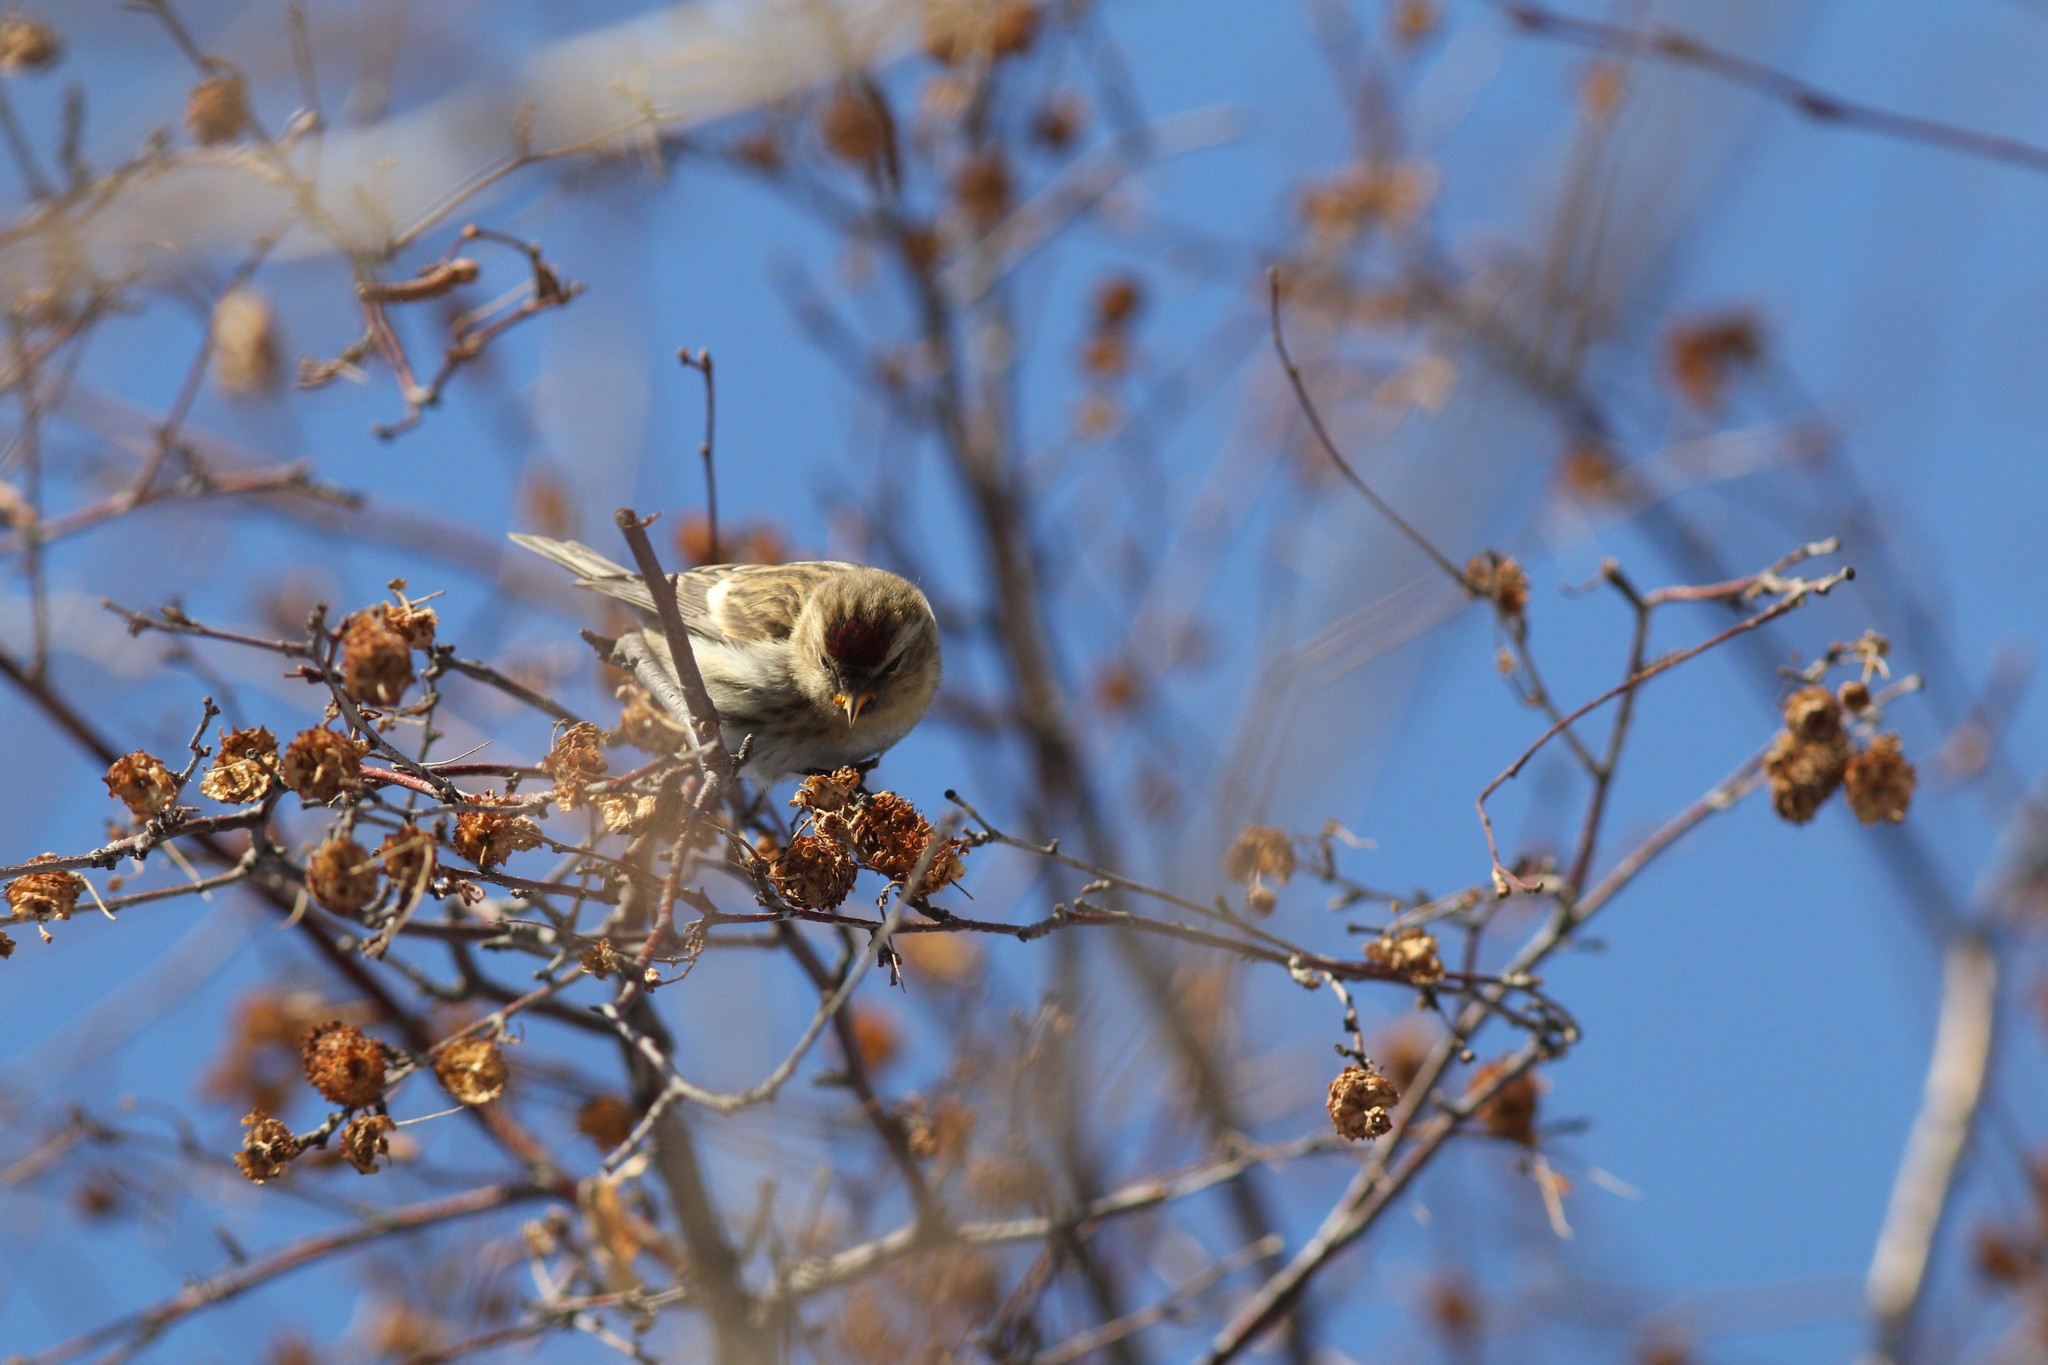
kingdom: Animalia
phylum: Chordata
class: Aves
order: Passeriformes
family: Fringillidae
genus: Acanthis
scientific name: Acanthis flammea
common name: Common redpoll
